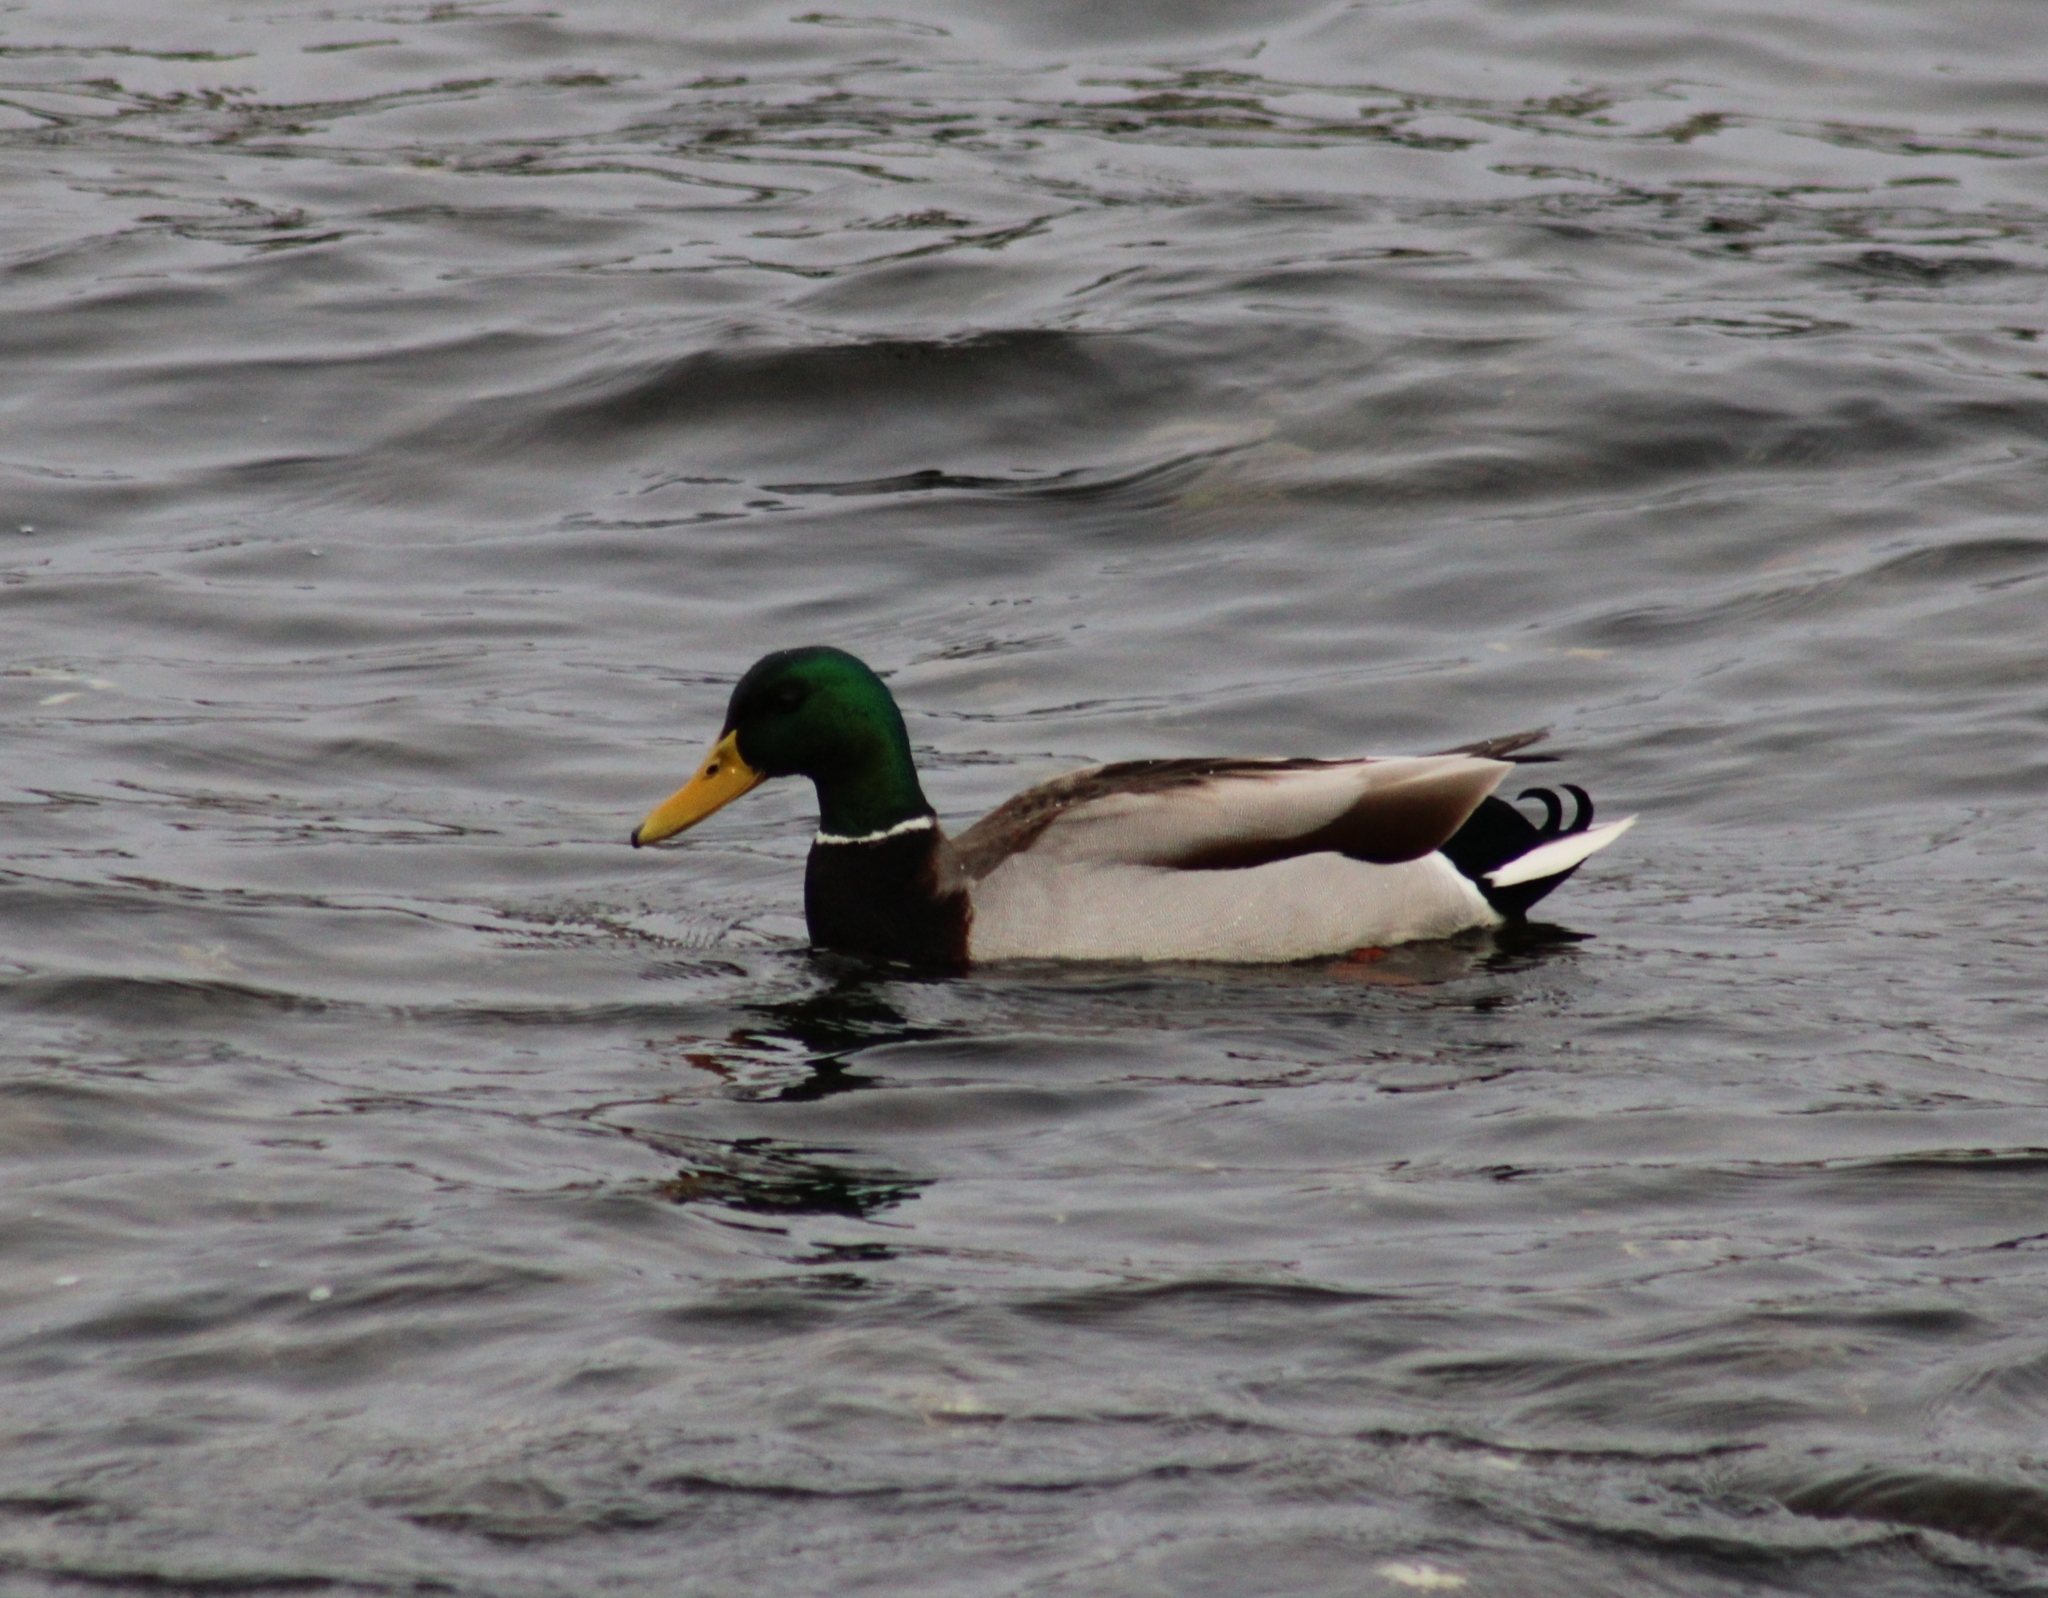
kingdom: Animalia
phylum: Chordata
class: Aves
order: Anseriformes
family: Anatidae
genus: Anas
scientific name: Anas platyrhynchos
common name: Mallard
